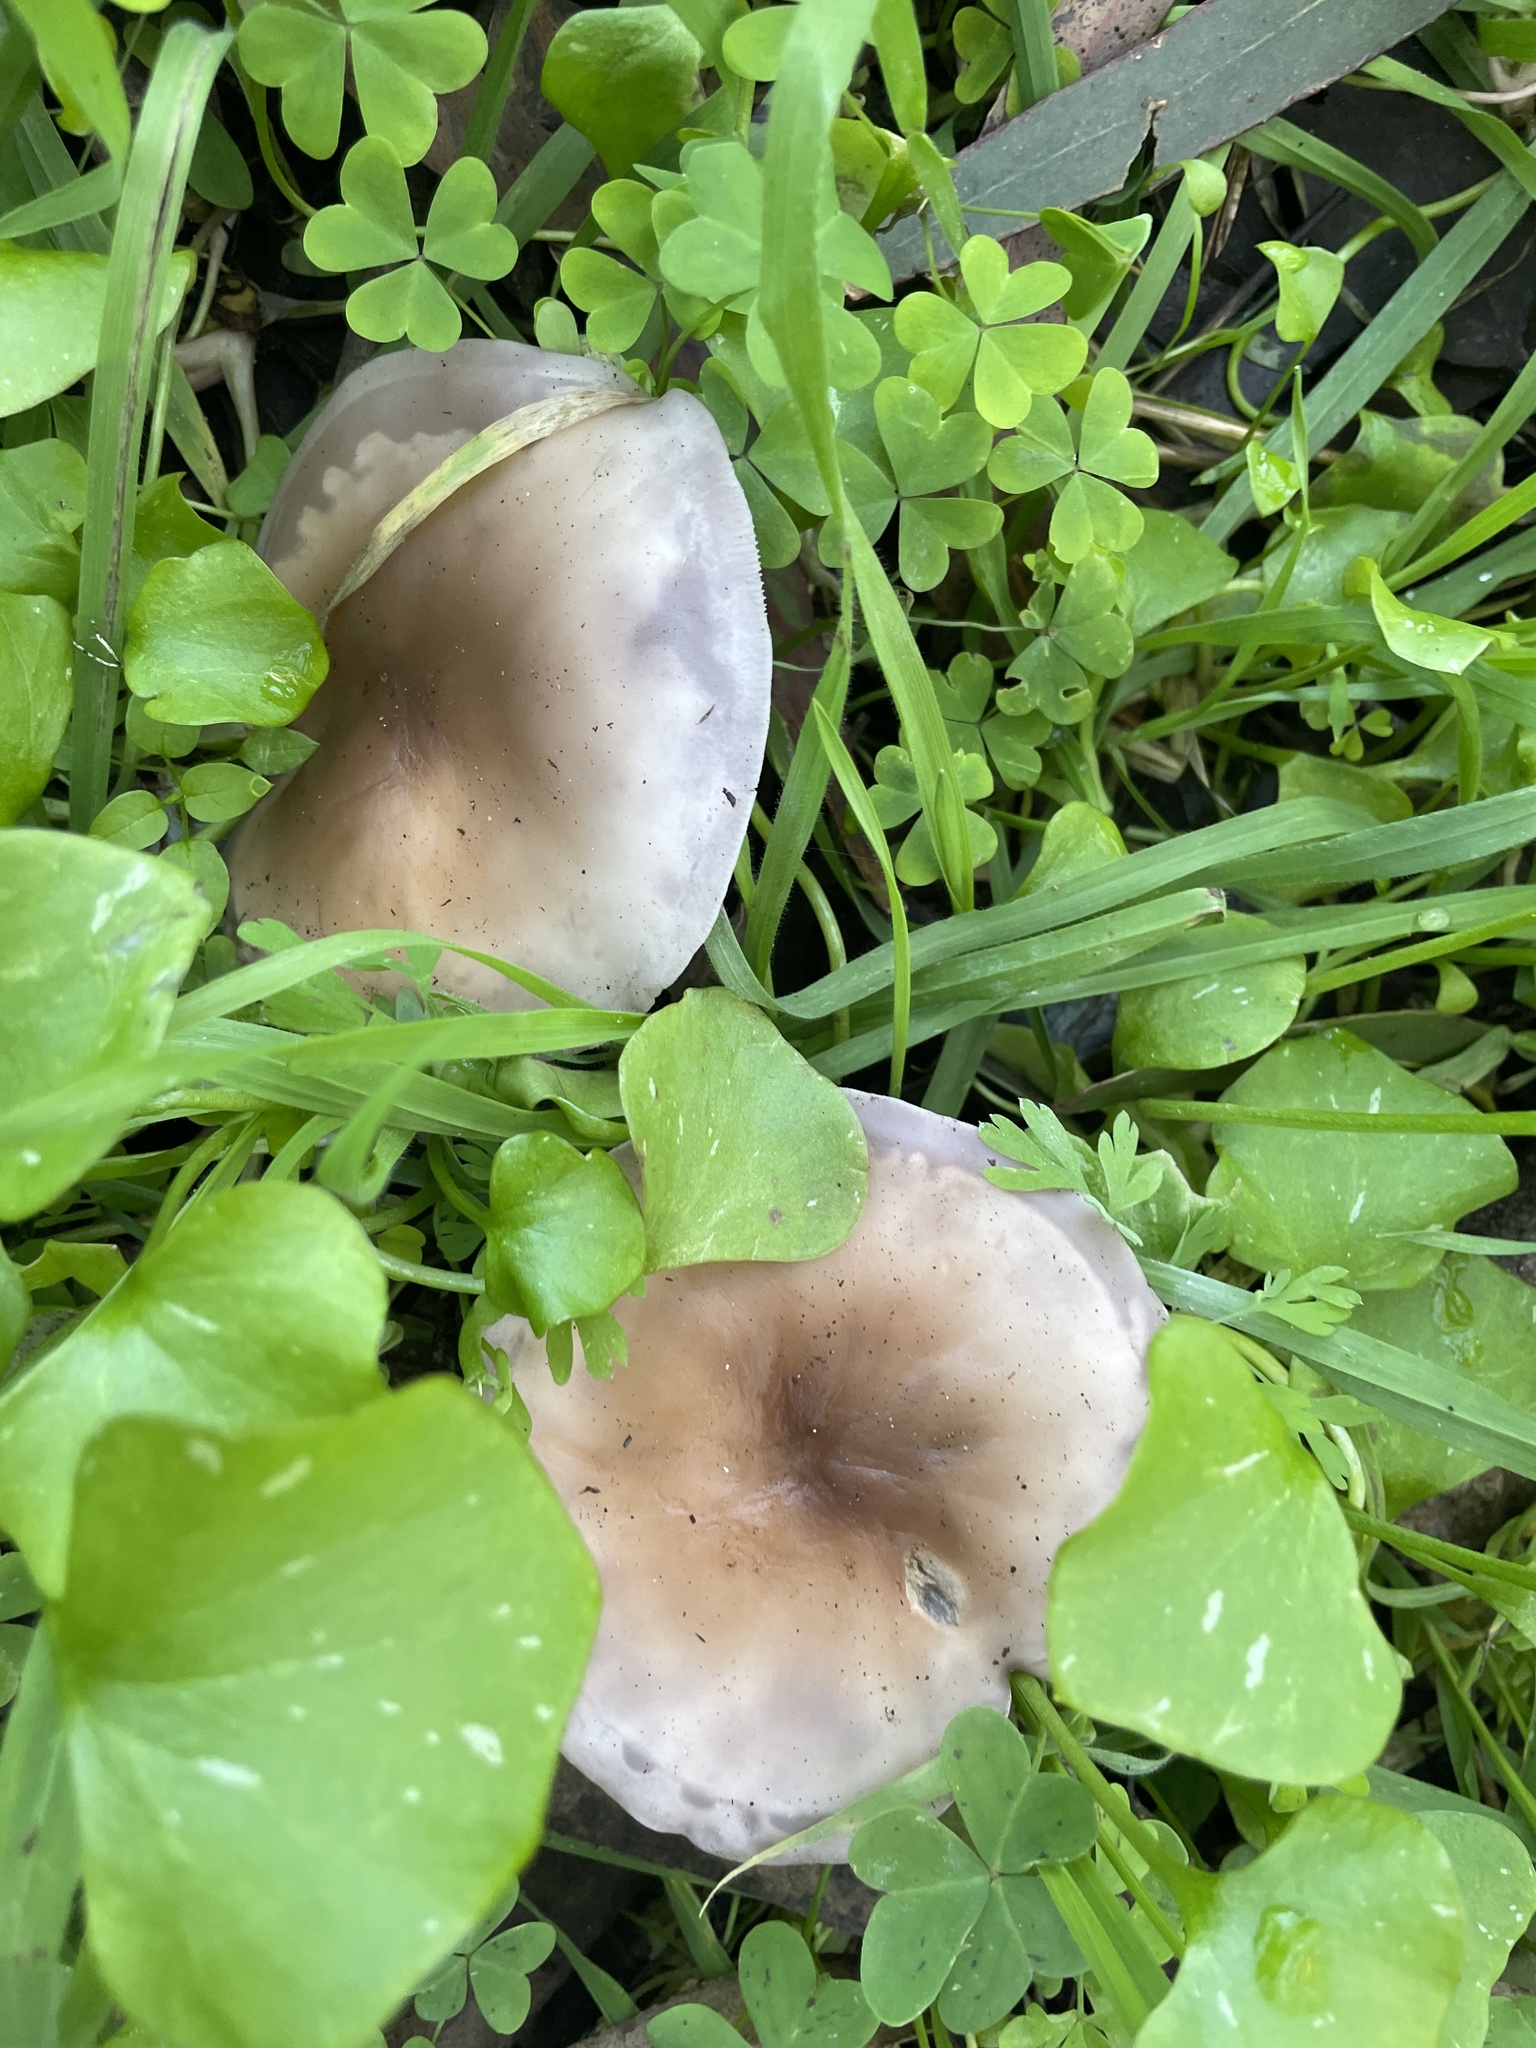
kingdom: Fungi
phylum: Basidiomycota
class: Agaricomycetes
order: Agaricales
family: Tricholomataceae
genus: Collybia
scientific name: Collybia
